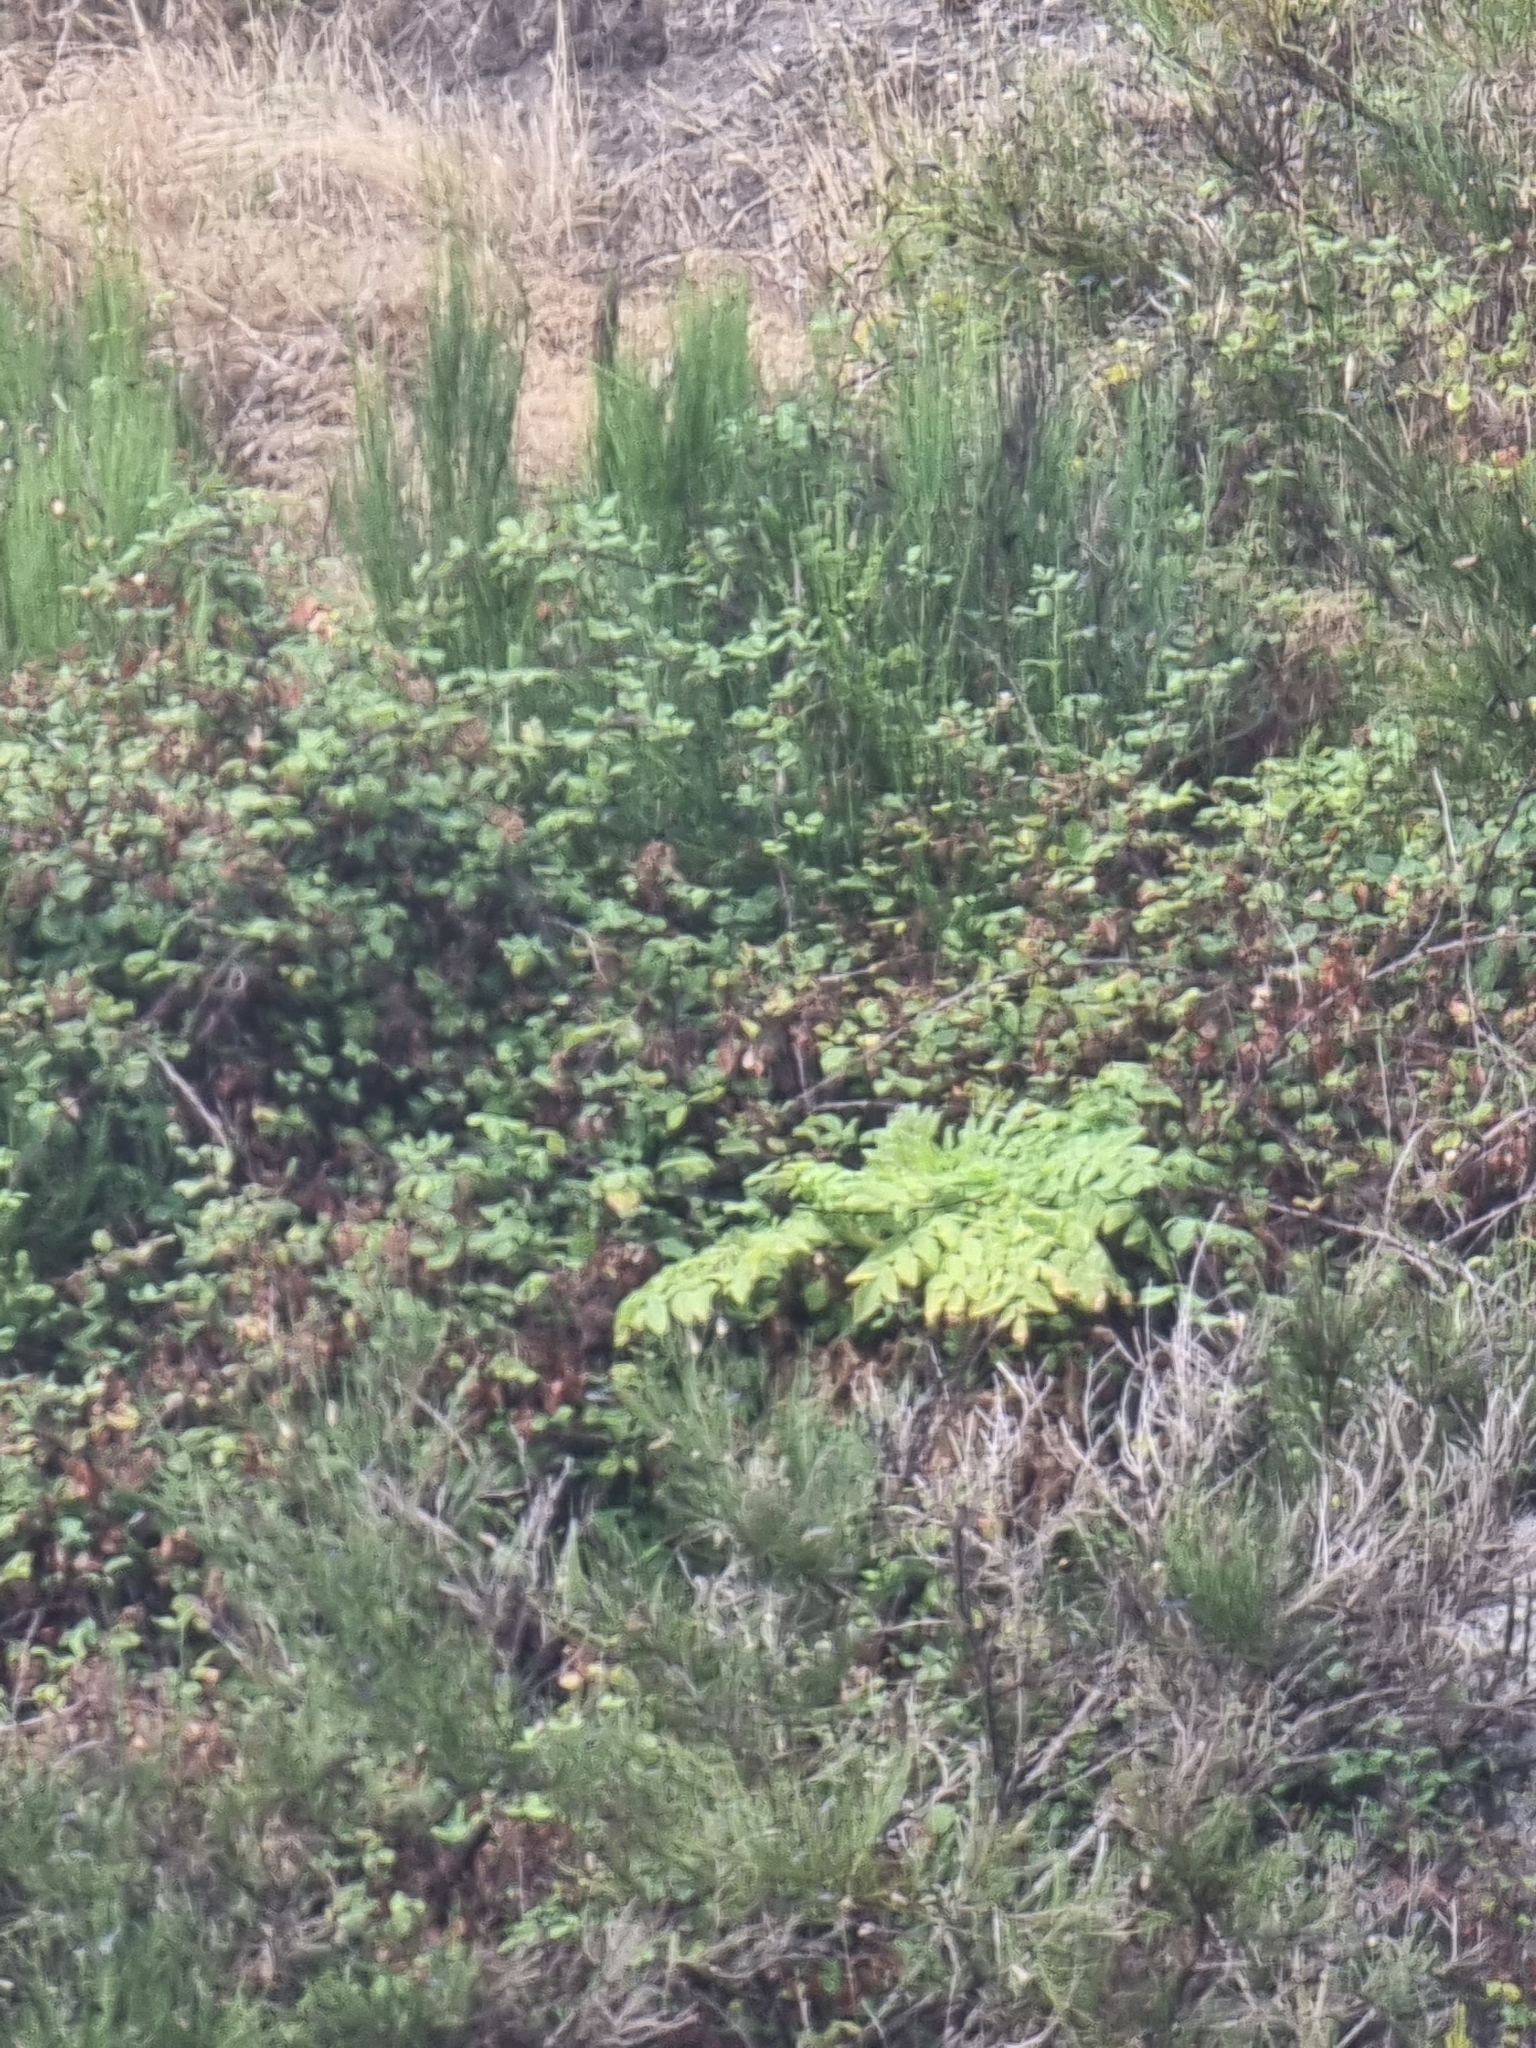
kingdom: Plantae
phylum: Tracheophyta
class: Magnoliopsida
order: Apiales
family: Apiaceae
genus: Daucus
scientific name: Daucus decipiens
